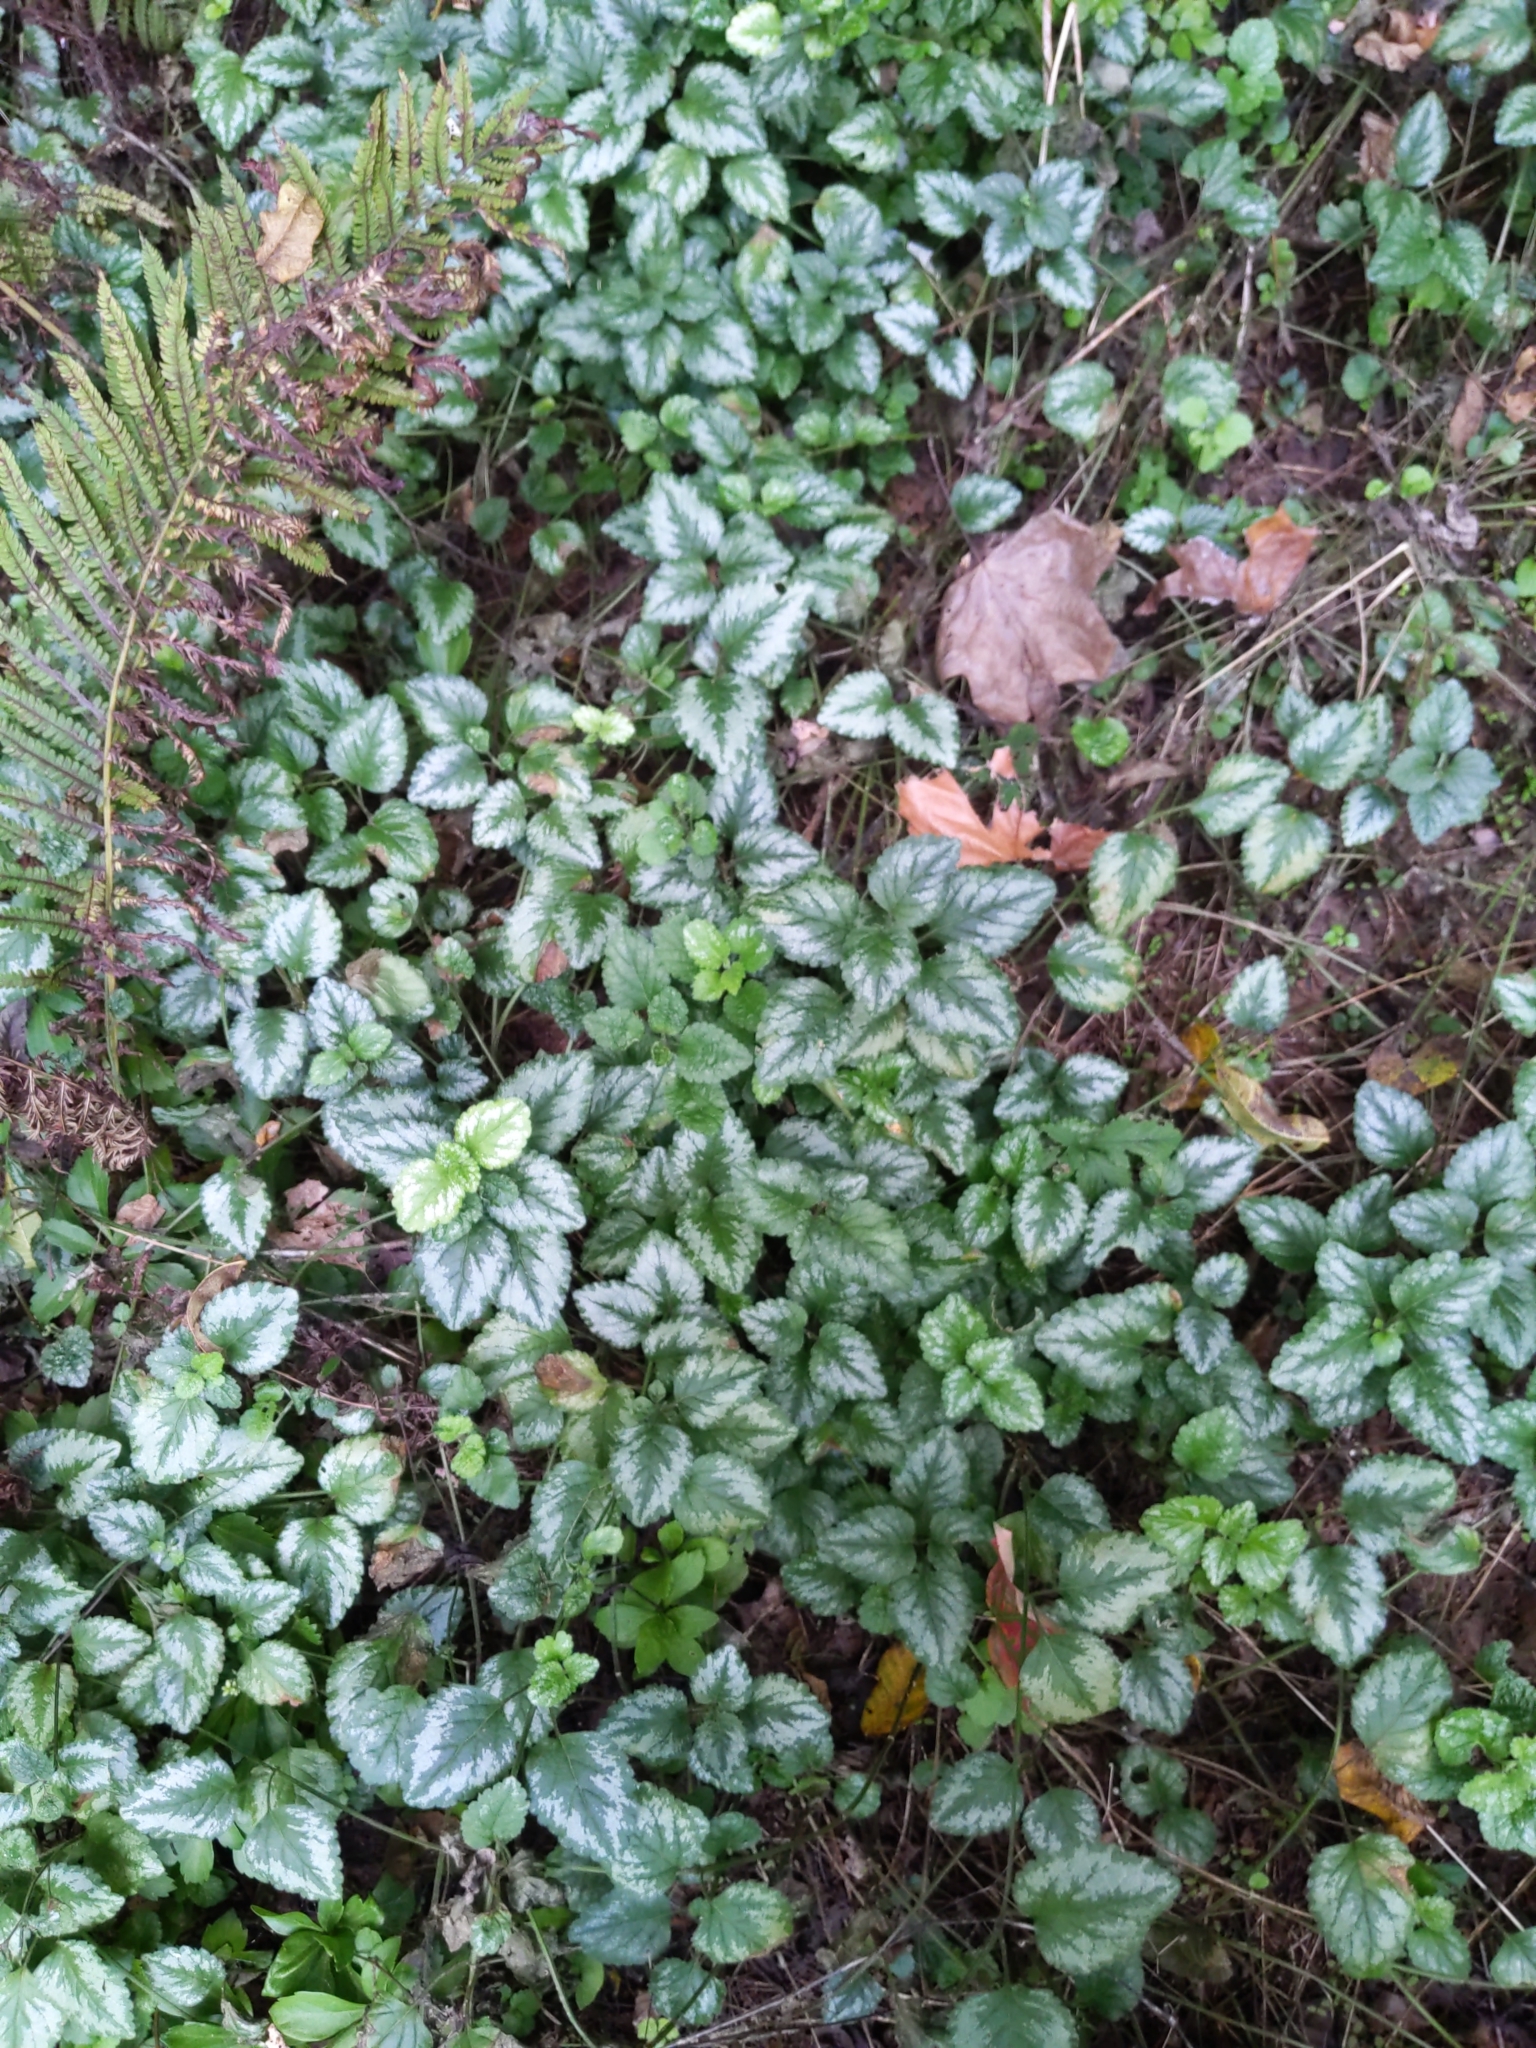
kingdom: Plantae
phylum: Tracheophyta
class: Magnoliopsida
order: Lamiales
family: Lamiaceae
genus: Lamium
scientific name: Lamium galeobdolon
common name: Yellow archangel
